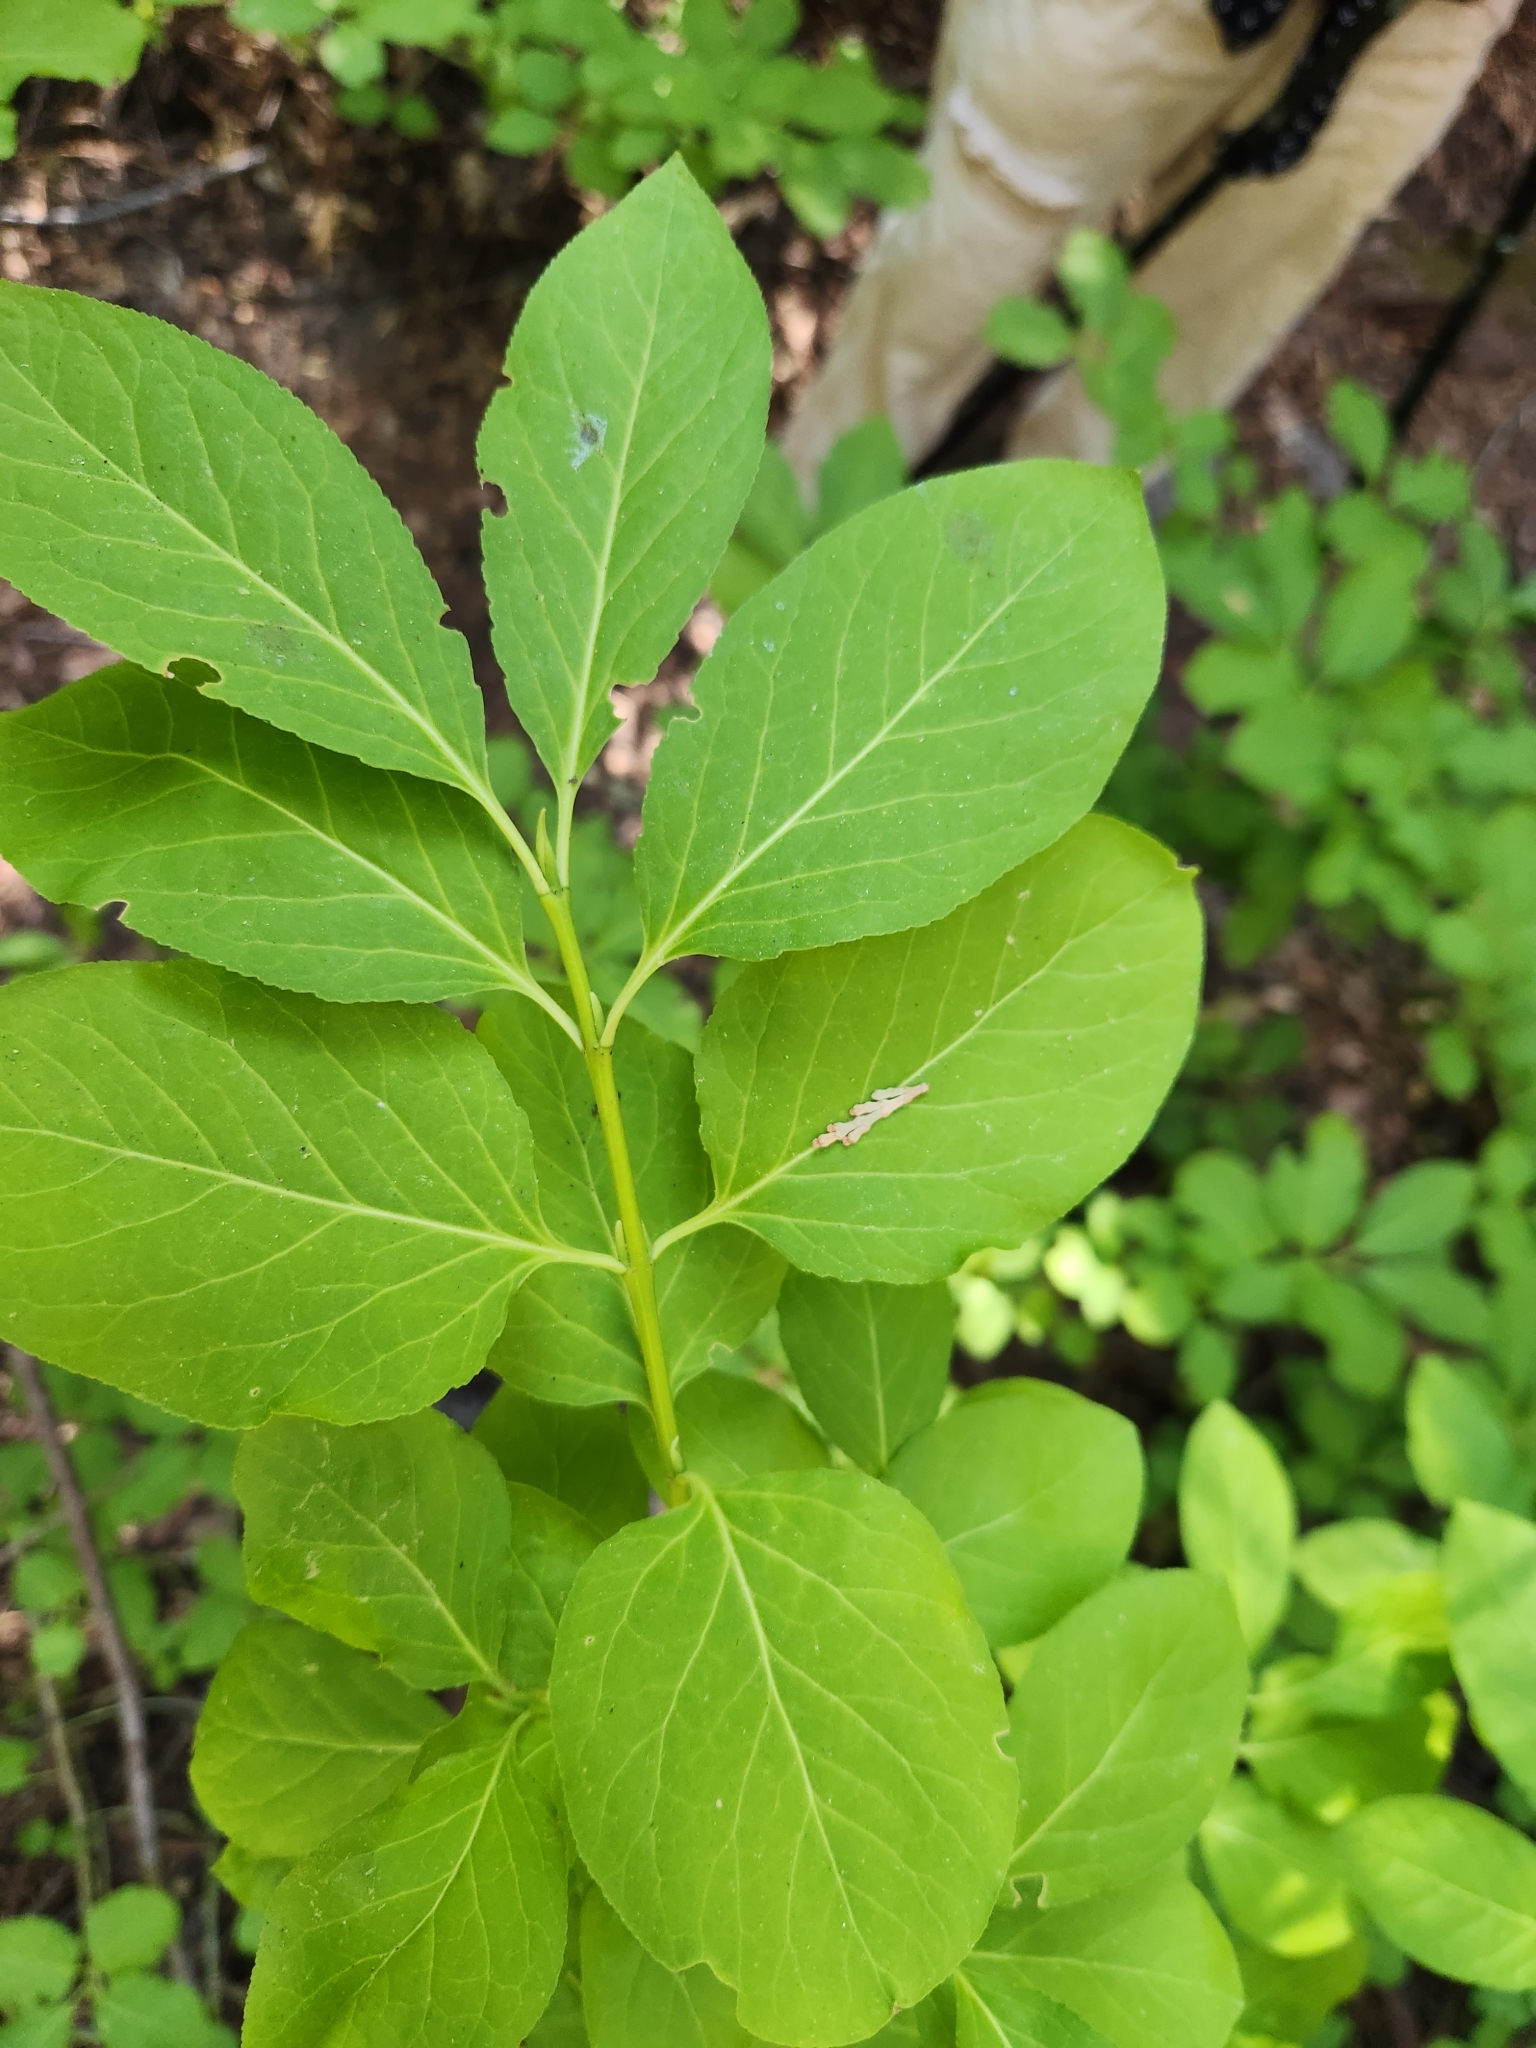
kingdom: Plantae
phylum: Tracheophyta
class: Magnoliopsida
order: Celastrales
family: Celastraceae
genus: Euonymus
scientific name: Euonymus occidentalis
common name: Western burningbush
